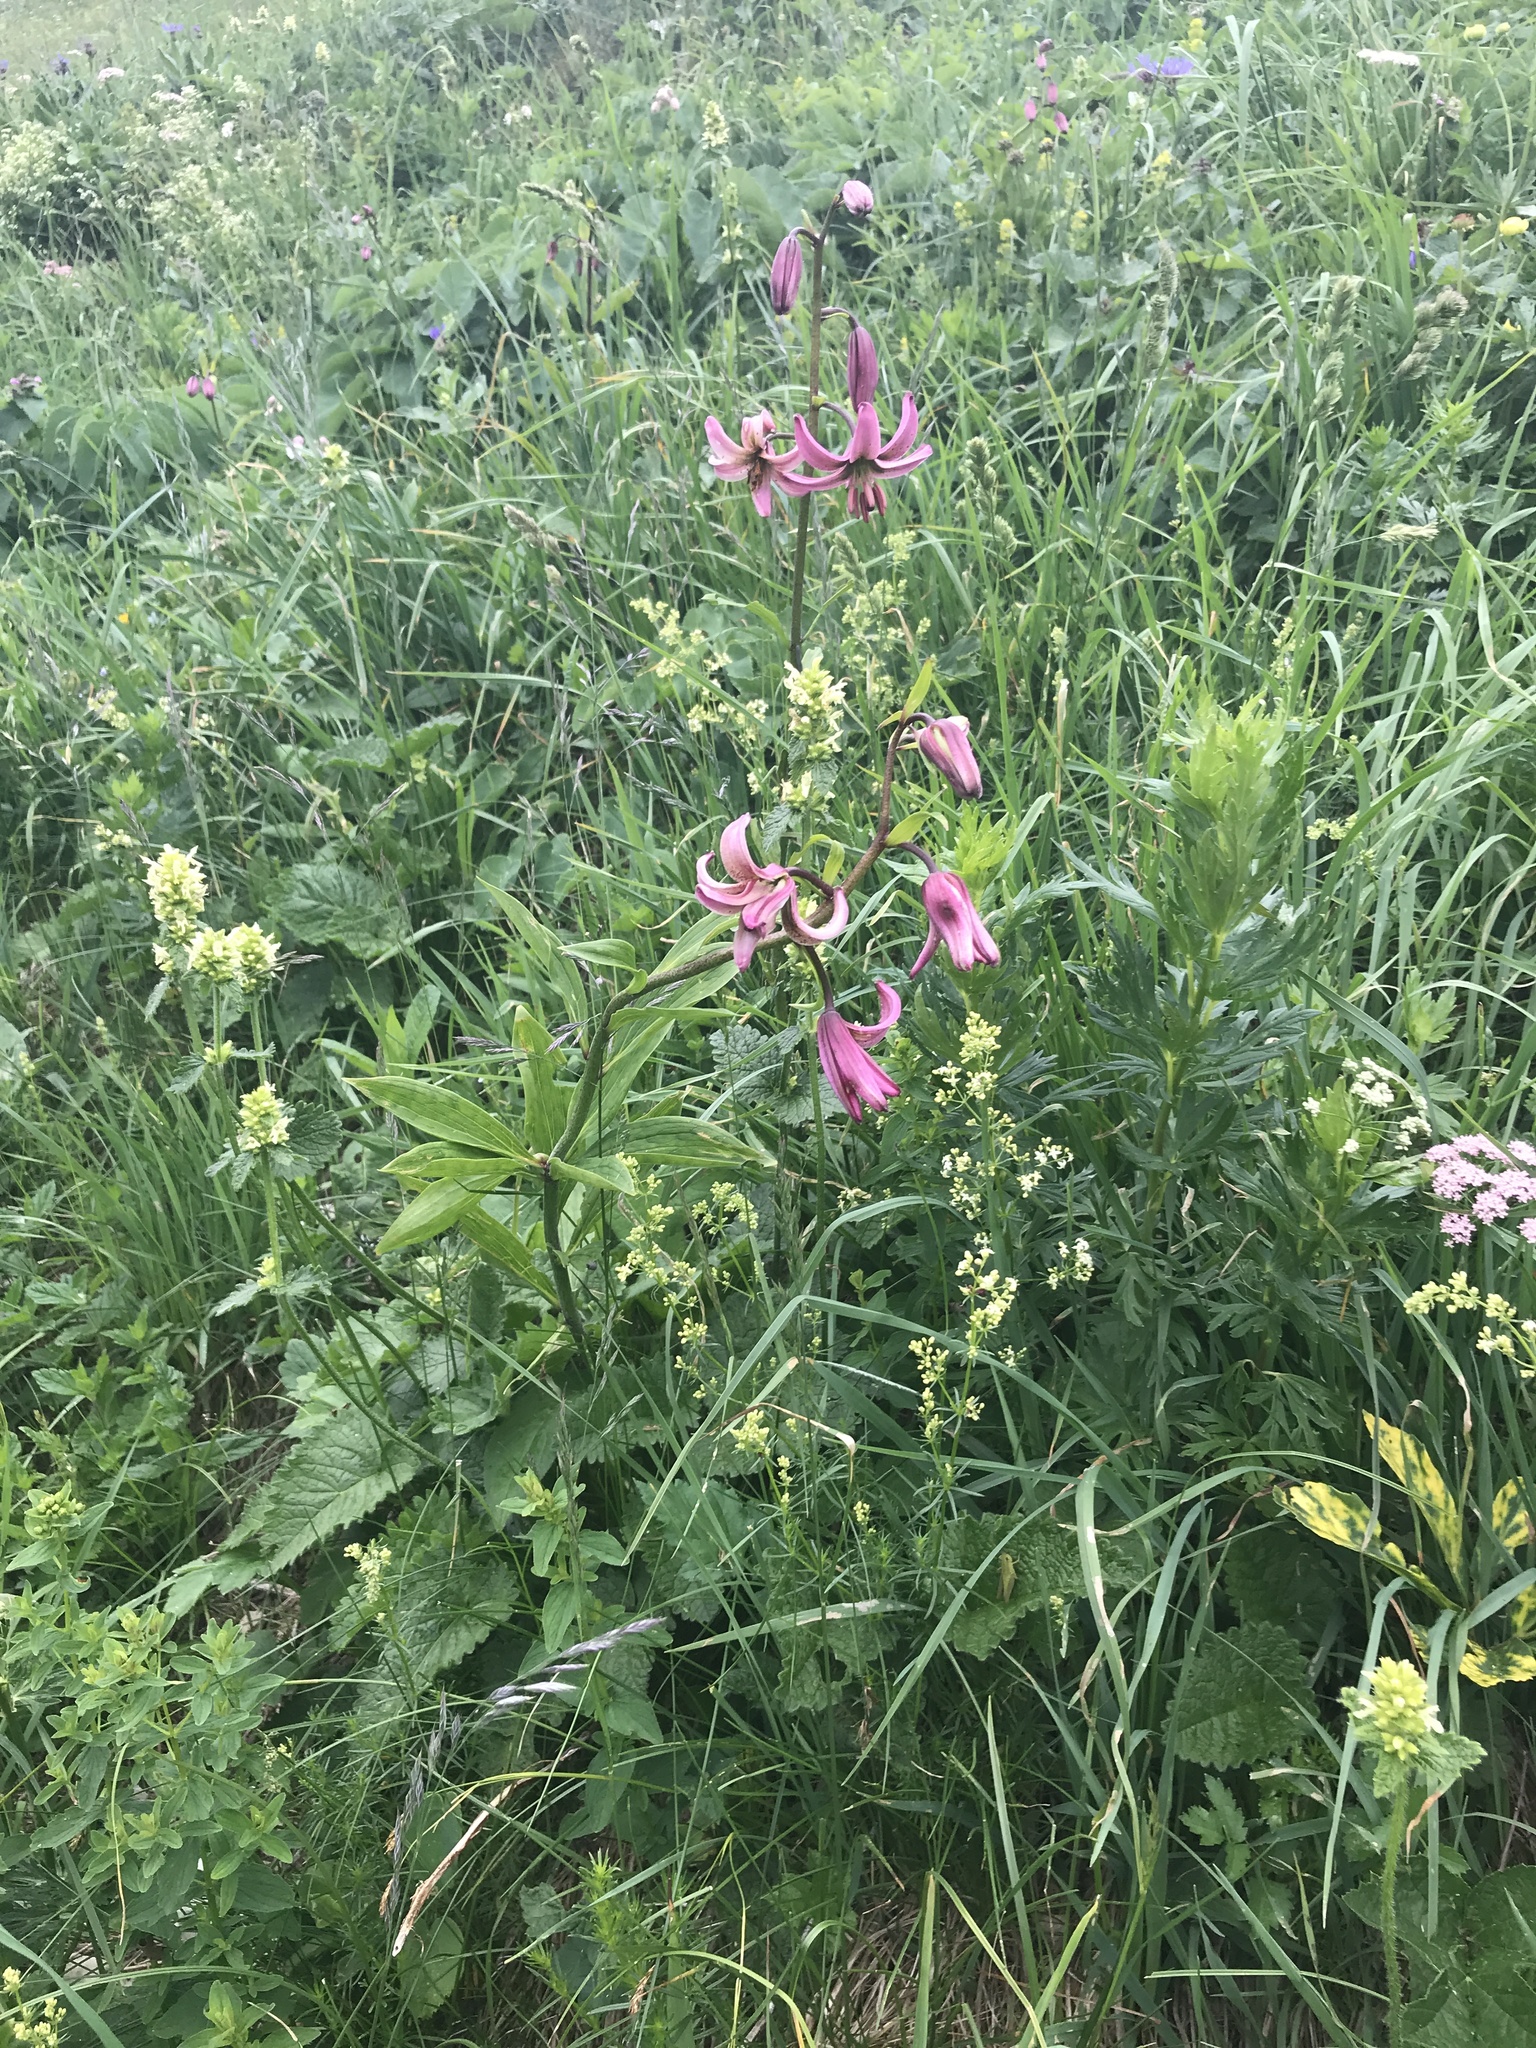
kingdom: Plantae
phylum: Tracheophyta
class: Liliopsida
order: Liliales
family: Liliaceae
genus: Lilium
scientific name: Lilium martagon
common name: Martagon lily
